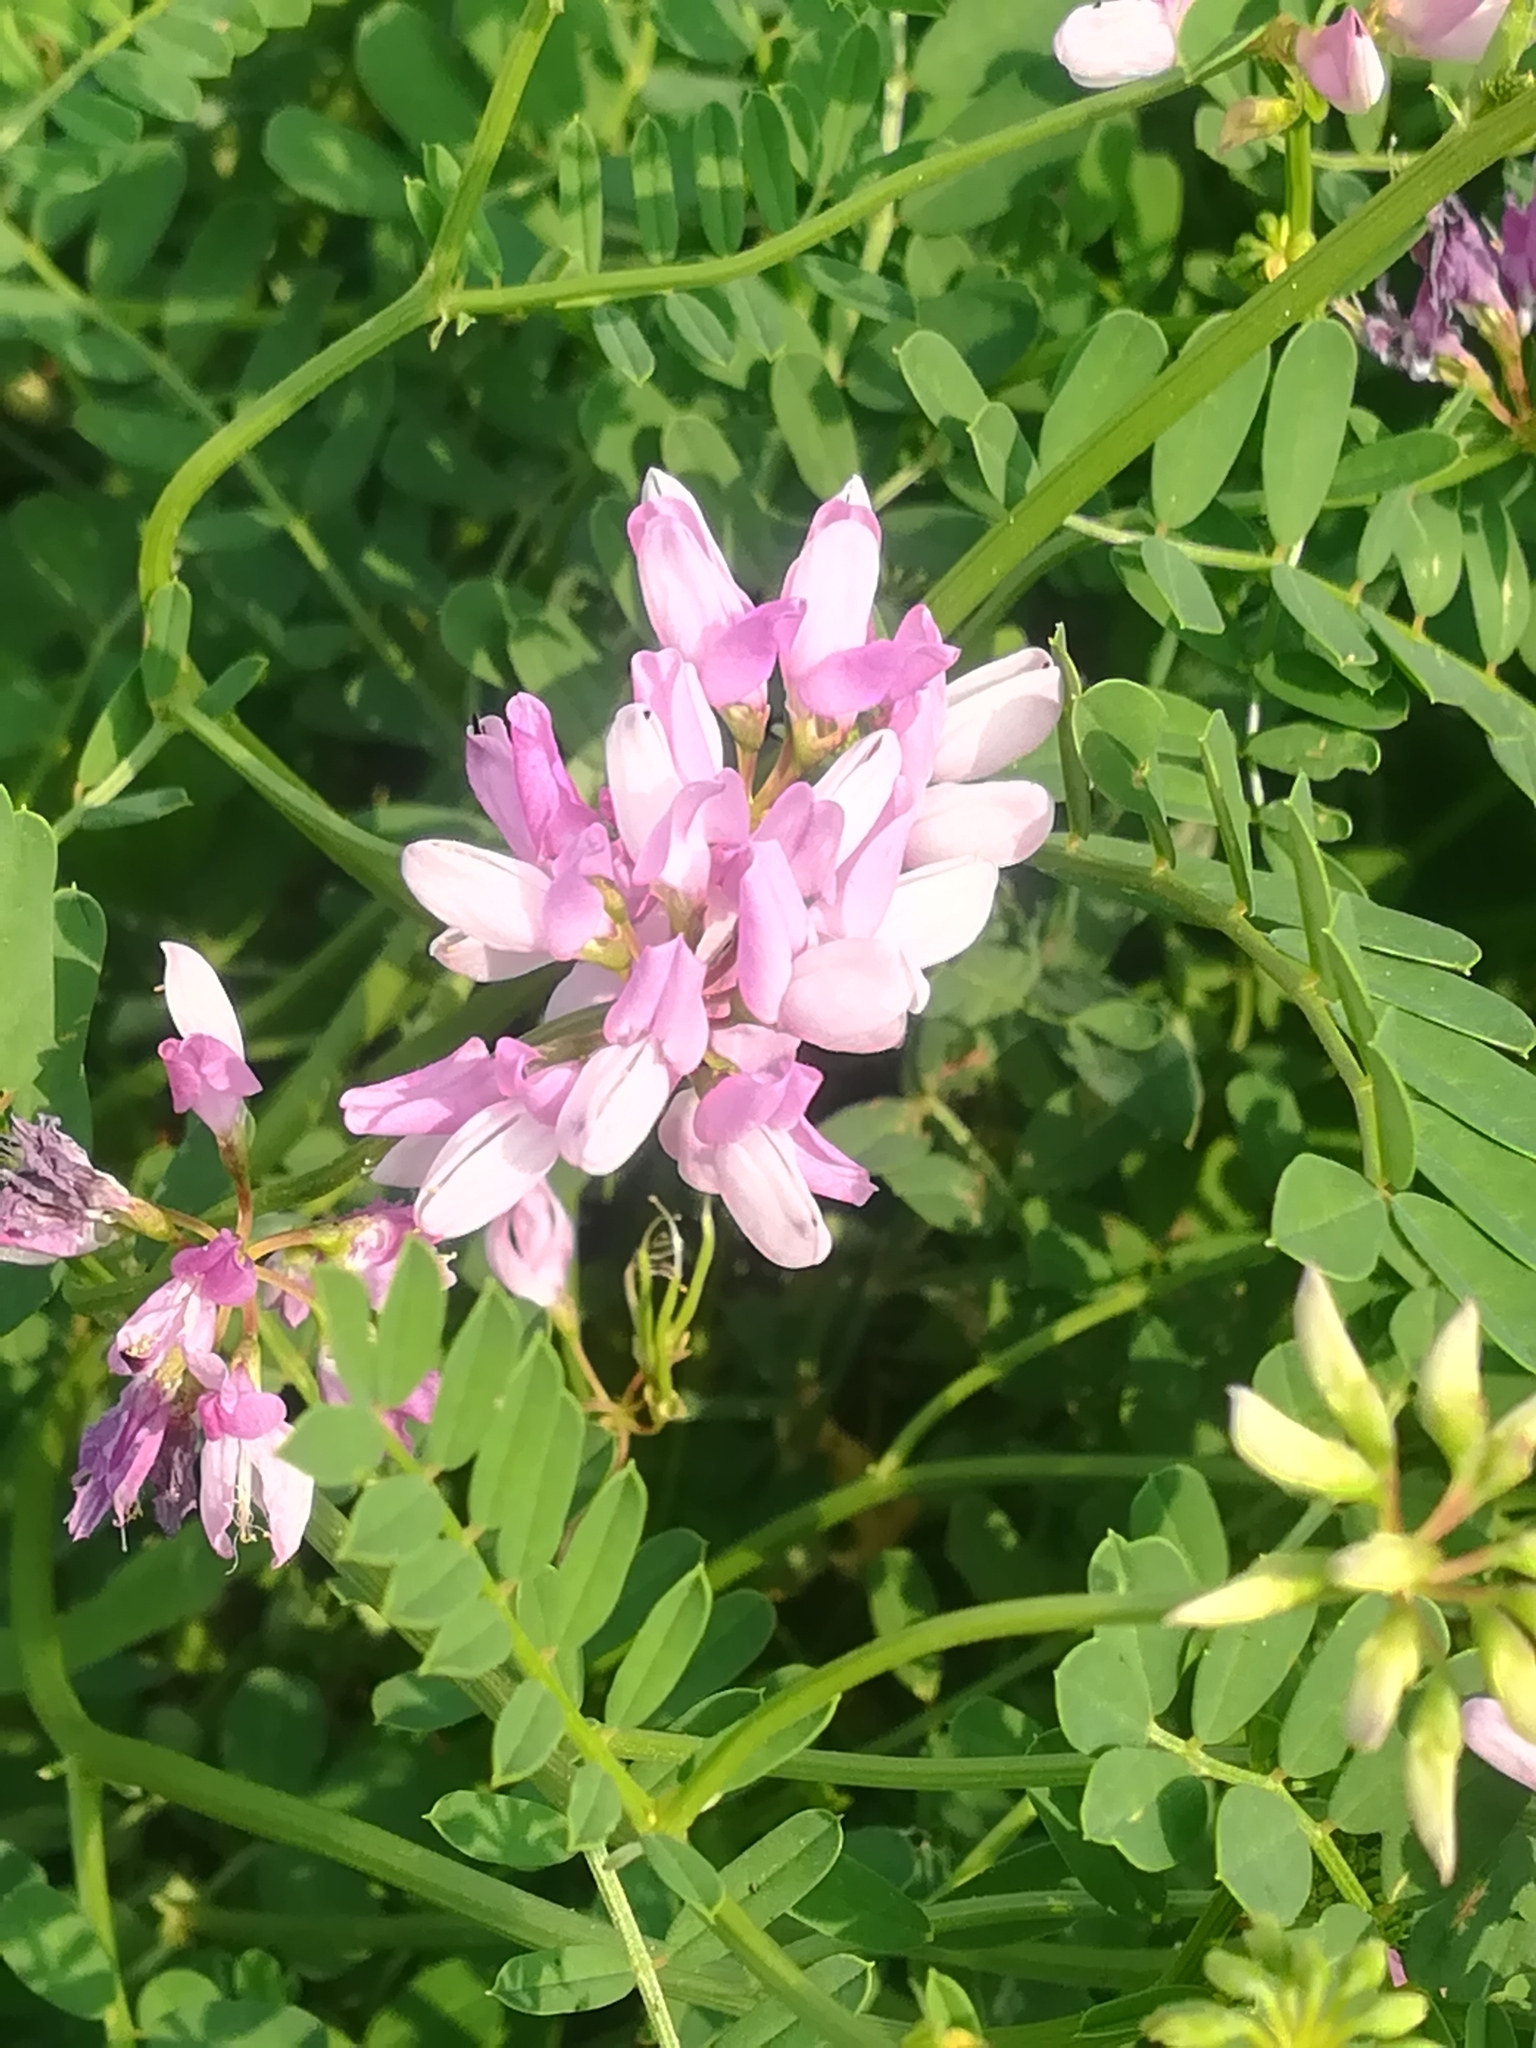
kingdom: Plantae
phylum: Tracheophyta
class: Magnoliopsida
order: Fabales
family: Fabaceae
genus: Coronilla
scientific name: Coronilla varia
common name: Crownvetch
